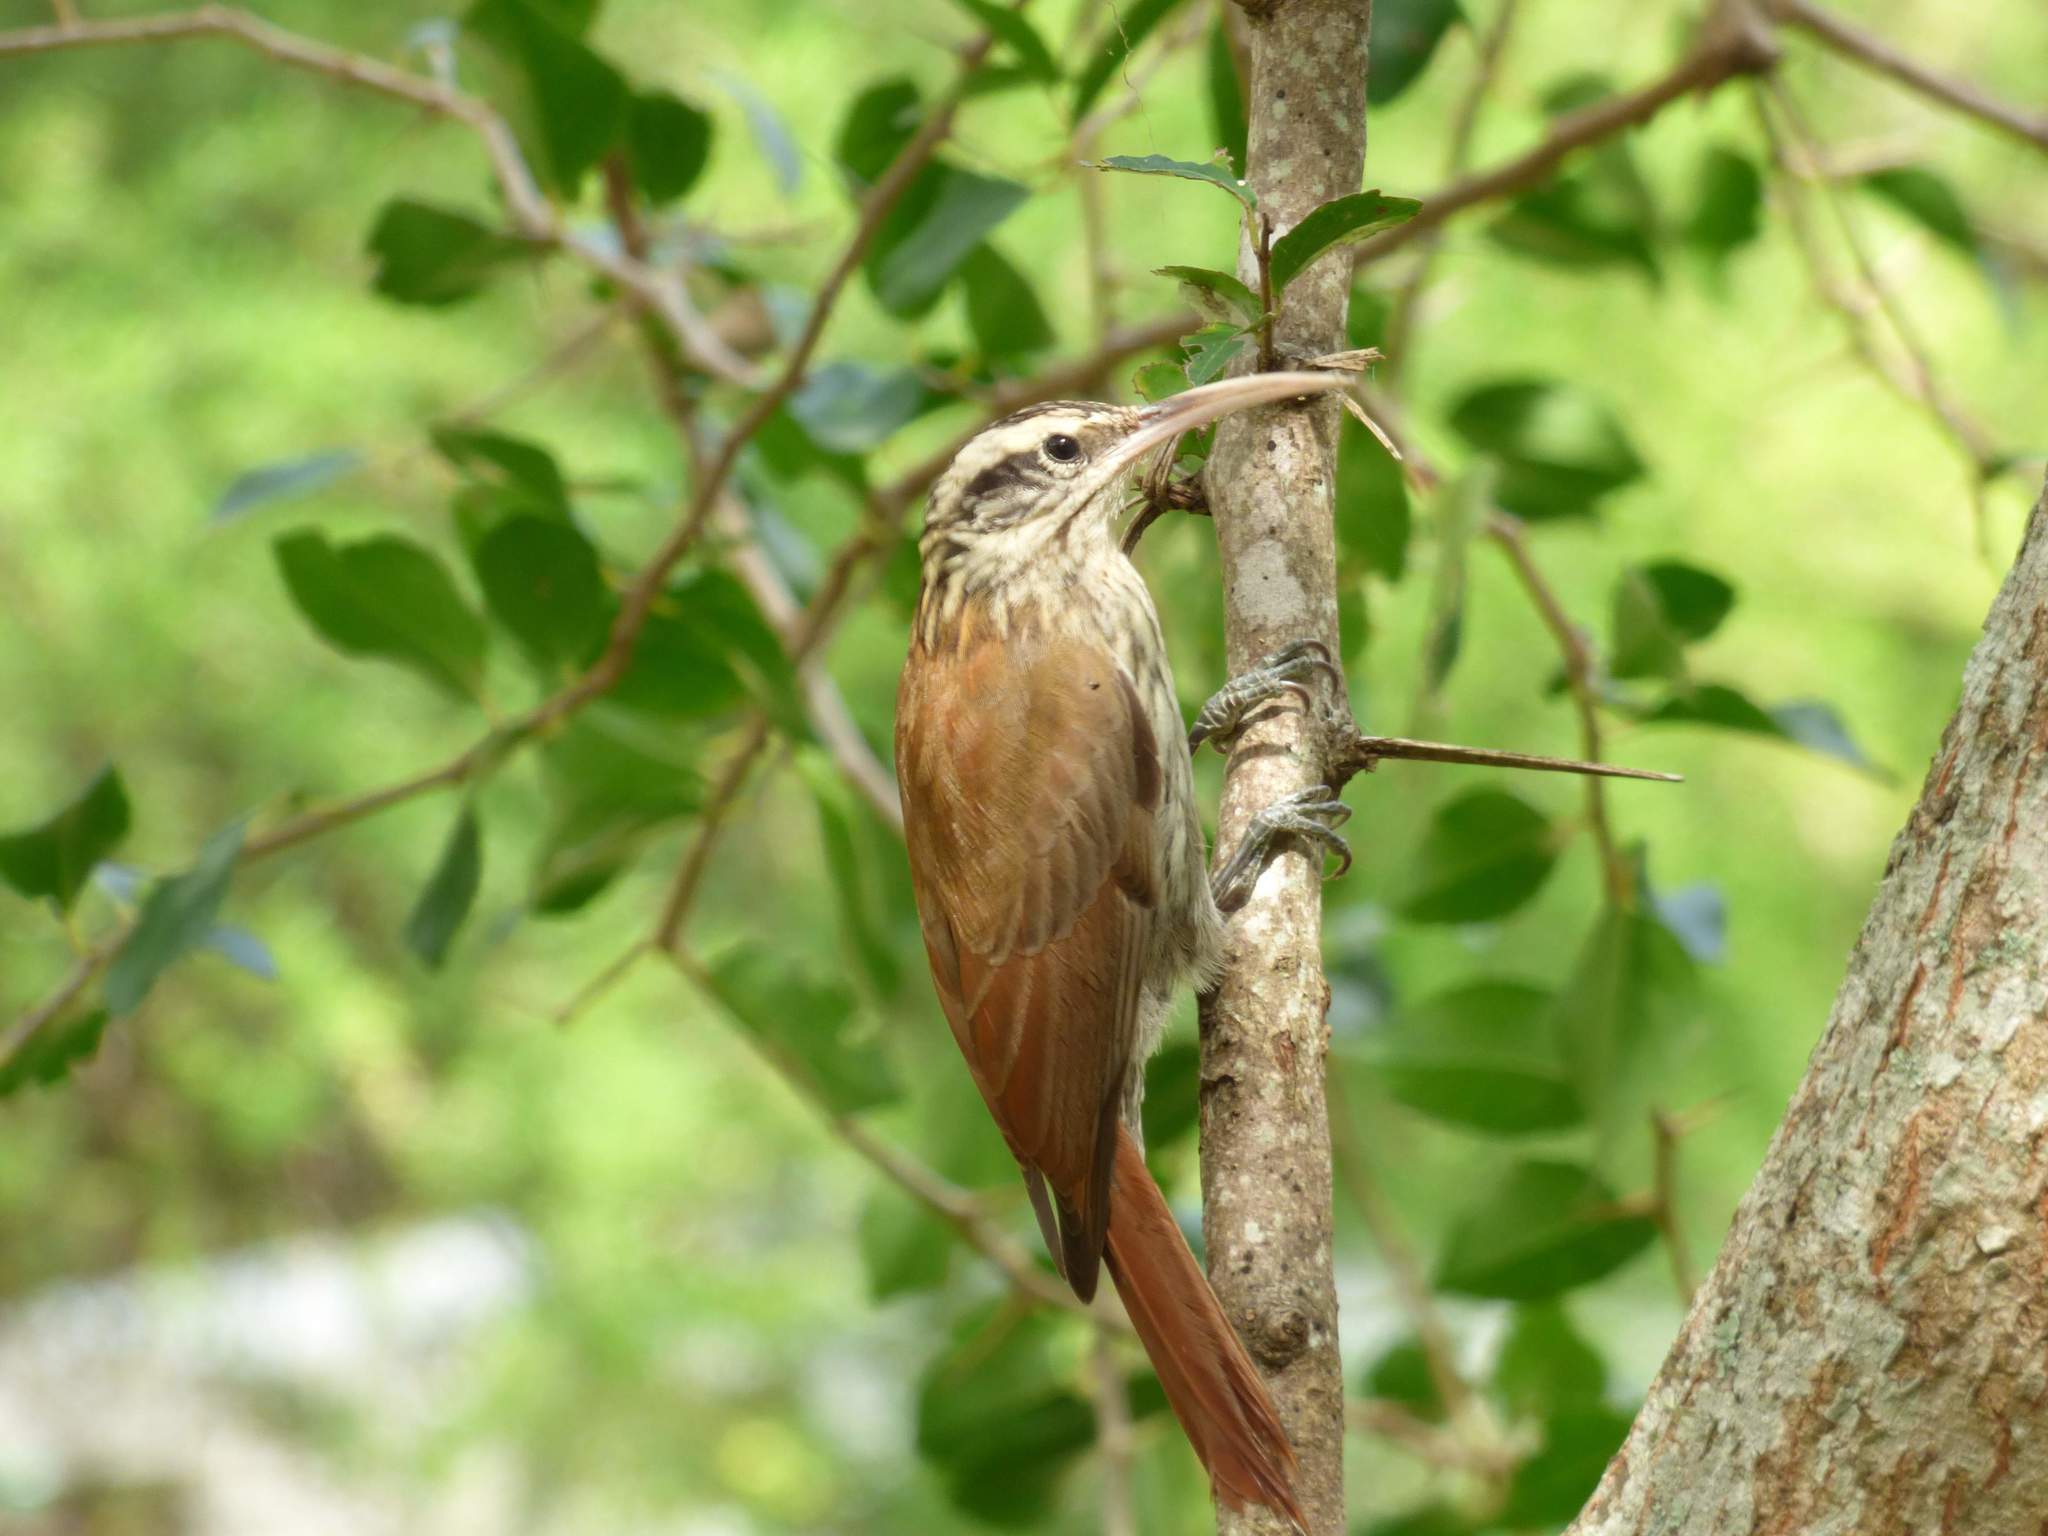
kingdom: Animalia
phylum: Chordata
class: Aves
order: Passeriformes
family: Furnariidae
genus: Lepidocolaptes
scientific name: Lepidocolaptes angustirostris
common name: Narrow-billed woodcreeper
